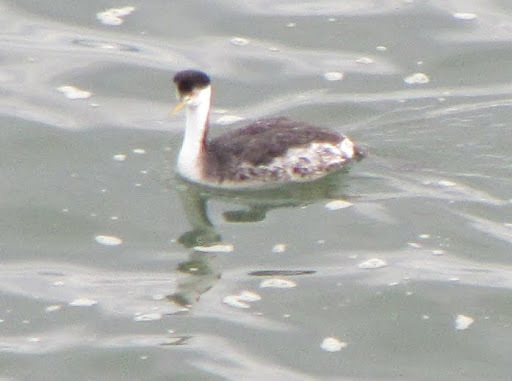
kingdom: Animalia
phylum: Chordata
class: Aves
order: Podicipediformes
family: Podicipedidae
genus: Aechmophorus
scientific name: Aechmophorus clarkii
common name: Clark's grebe
